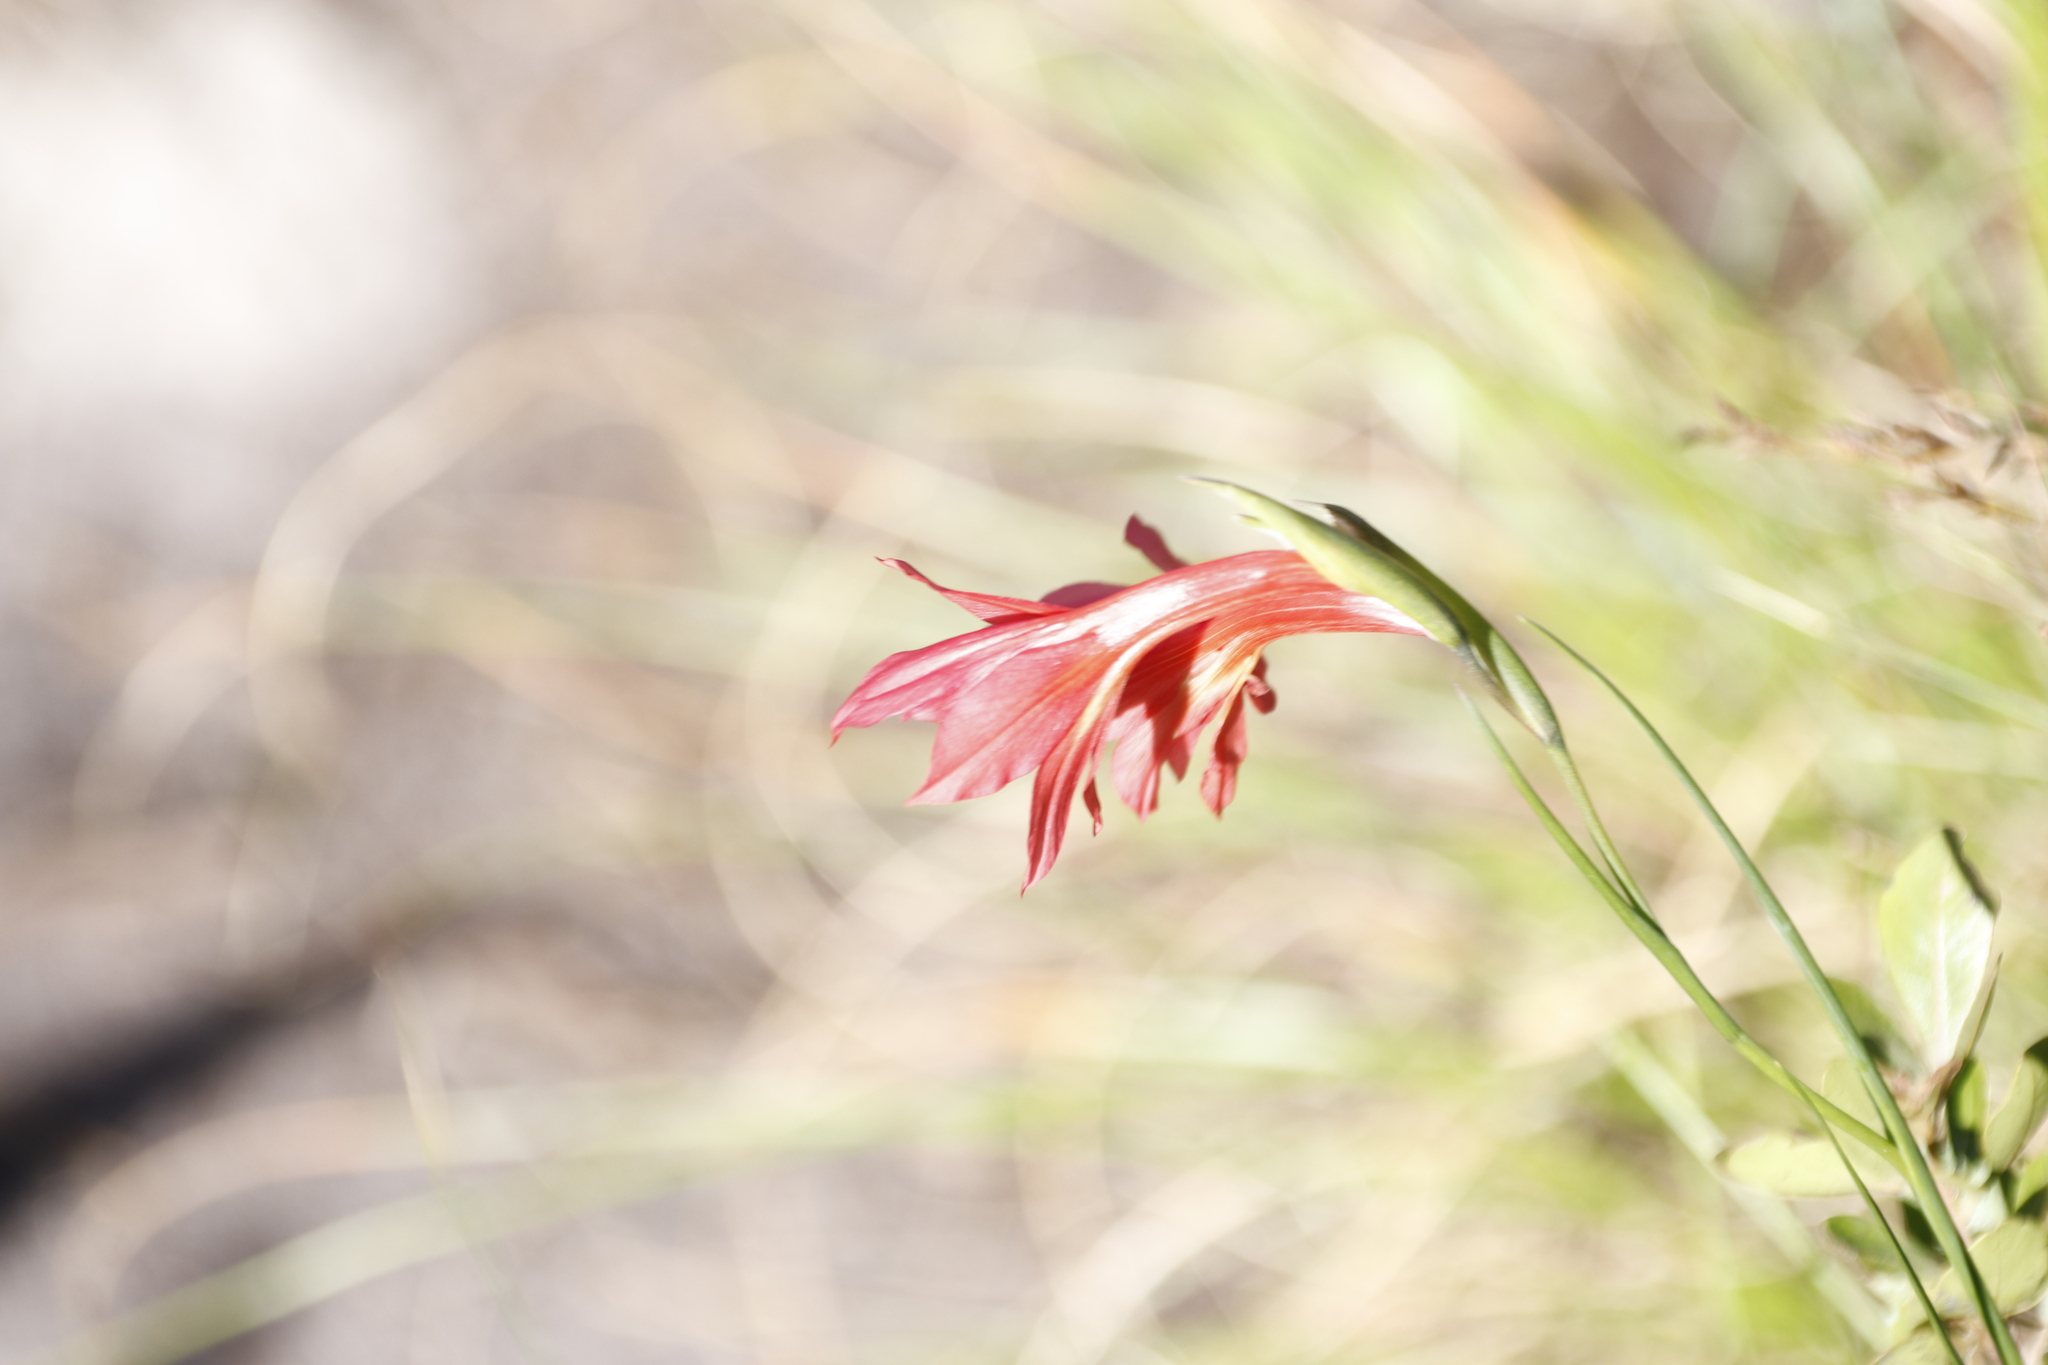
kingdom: Plantae
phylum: Tracheophyta
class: Liliopsida
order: Asparagales
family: Iridaceae
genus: Gladiolus
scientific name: Gladiolus priorii
